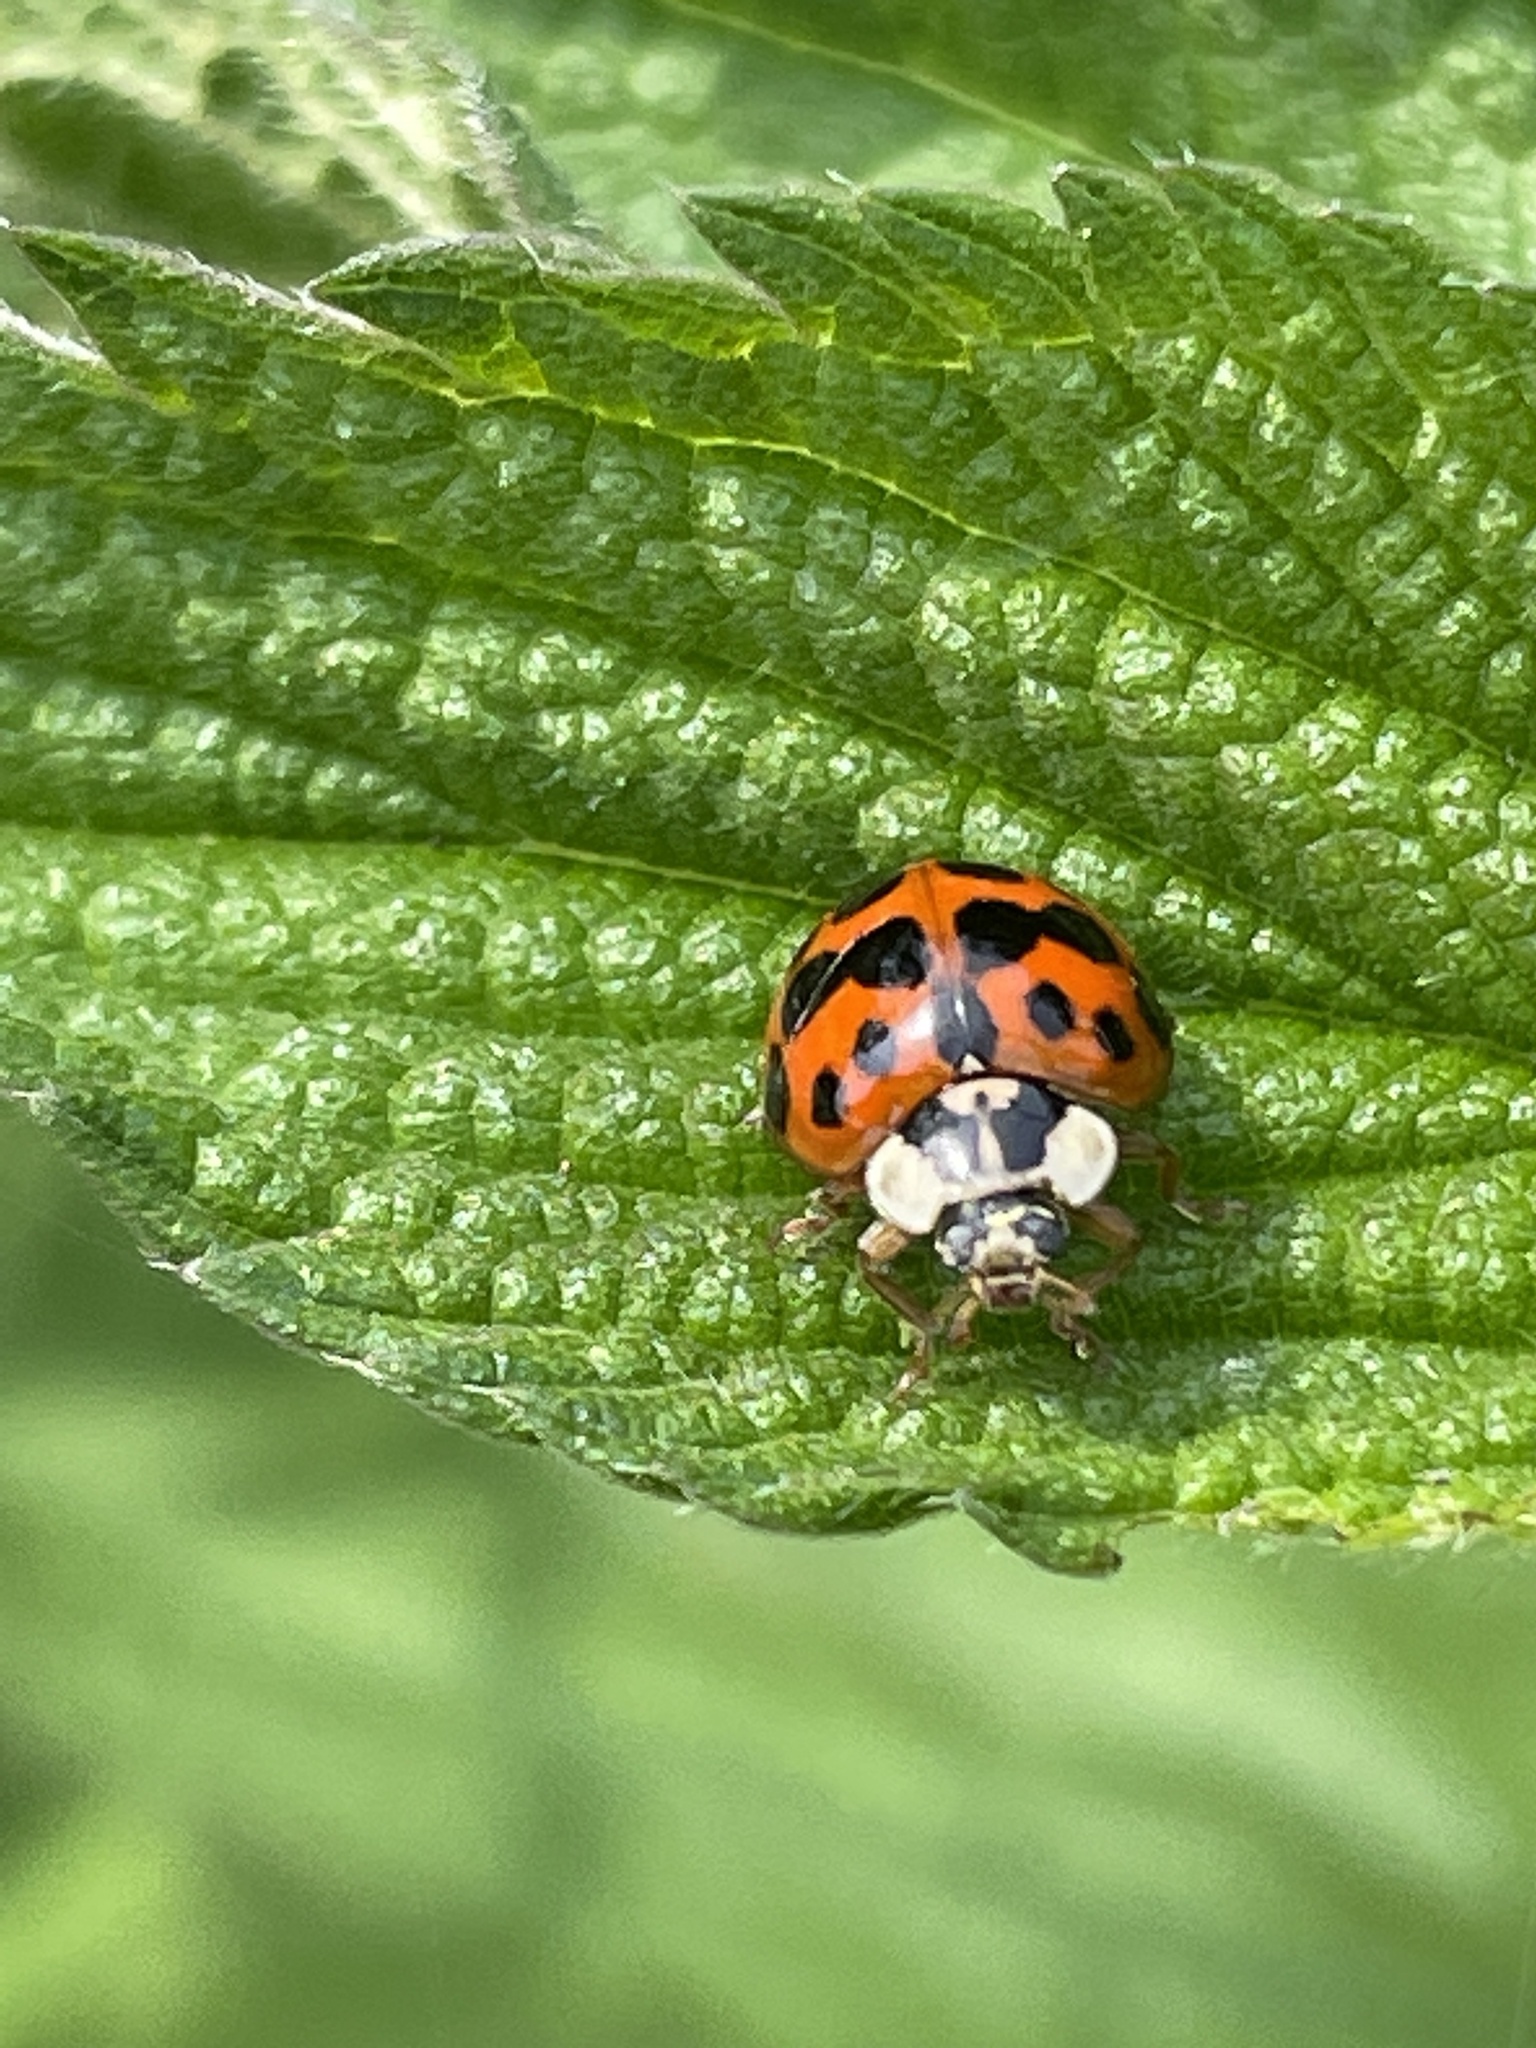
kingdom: Animalia
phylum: Arthropoda
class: Insecta
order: Coleoptera
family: Coccinellidae
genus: Harmonia
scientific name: Harmonia axyridis
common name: Harlequin ladybird
